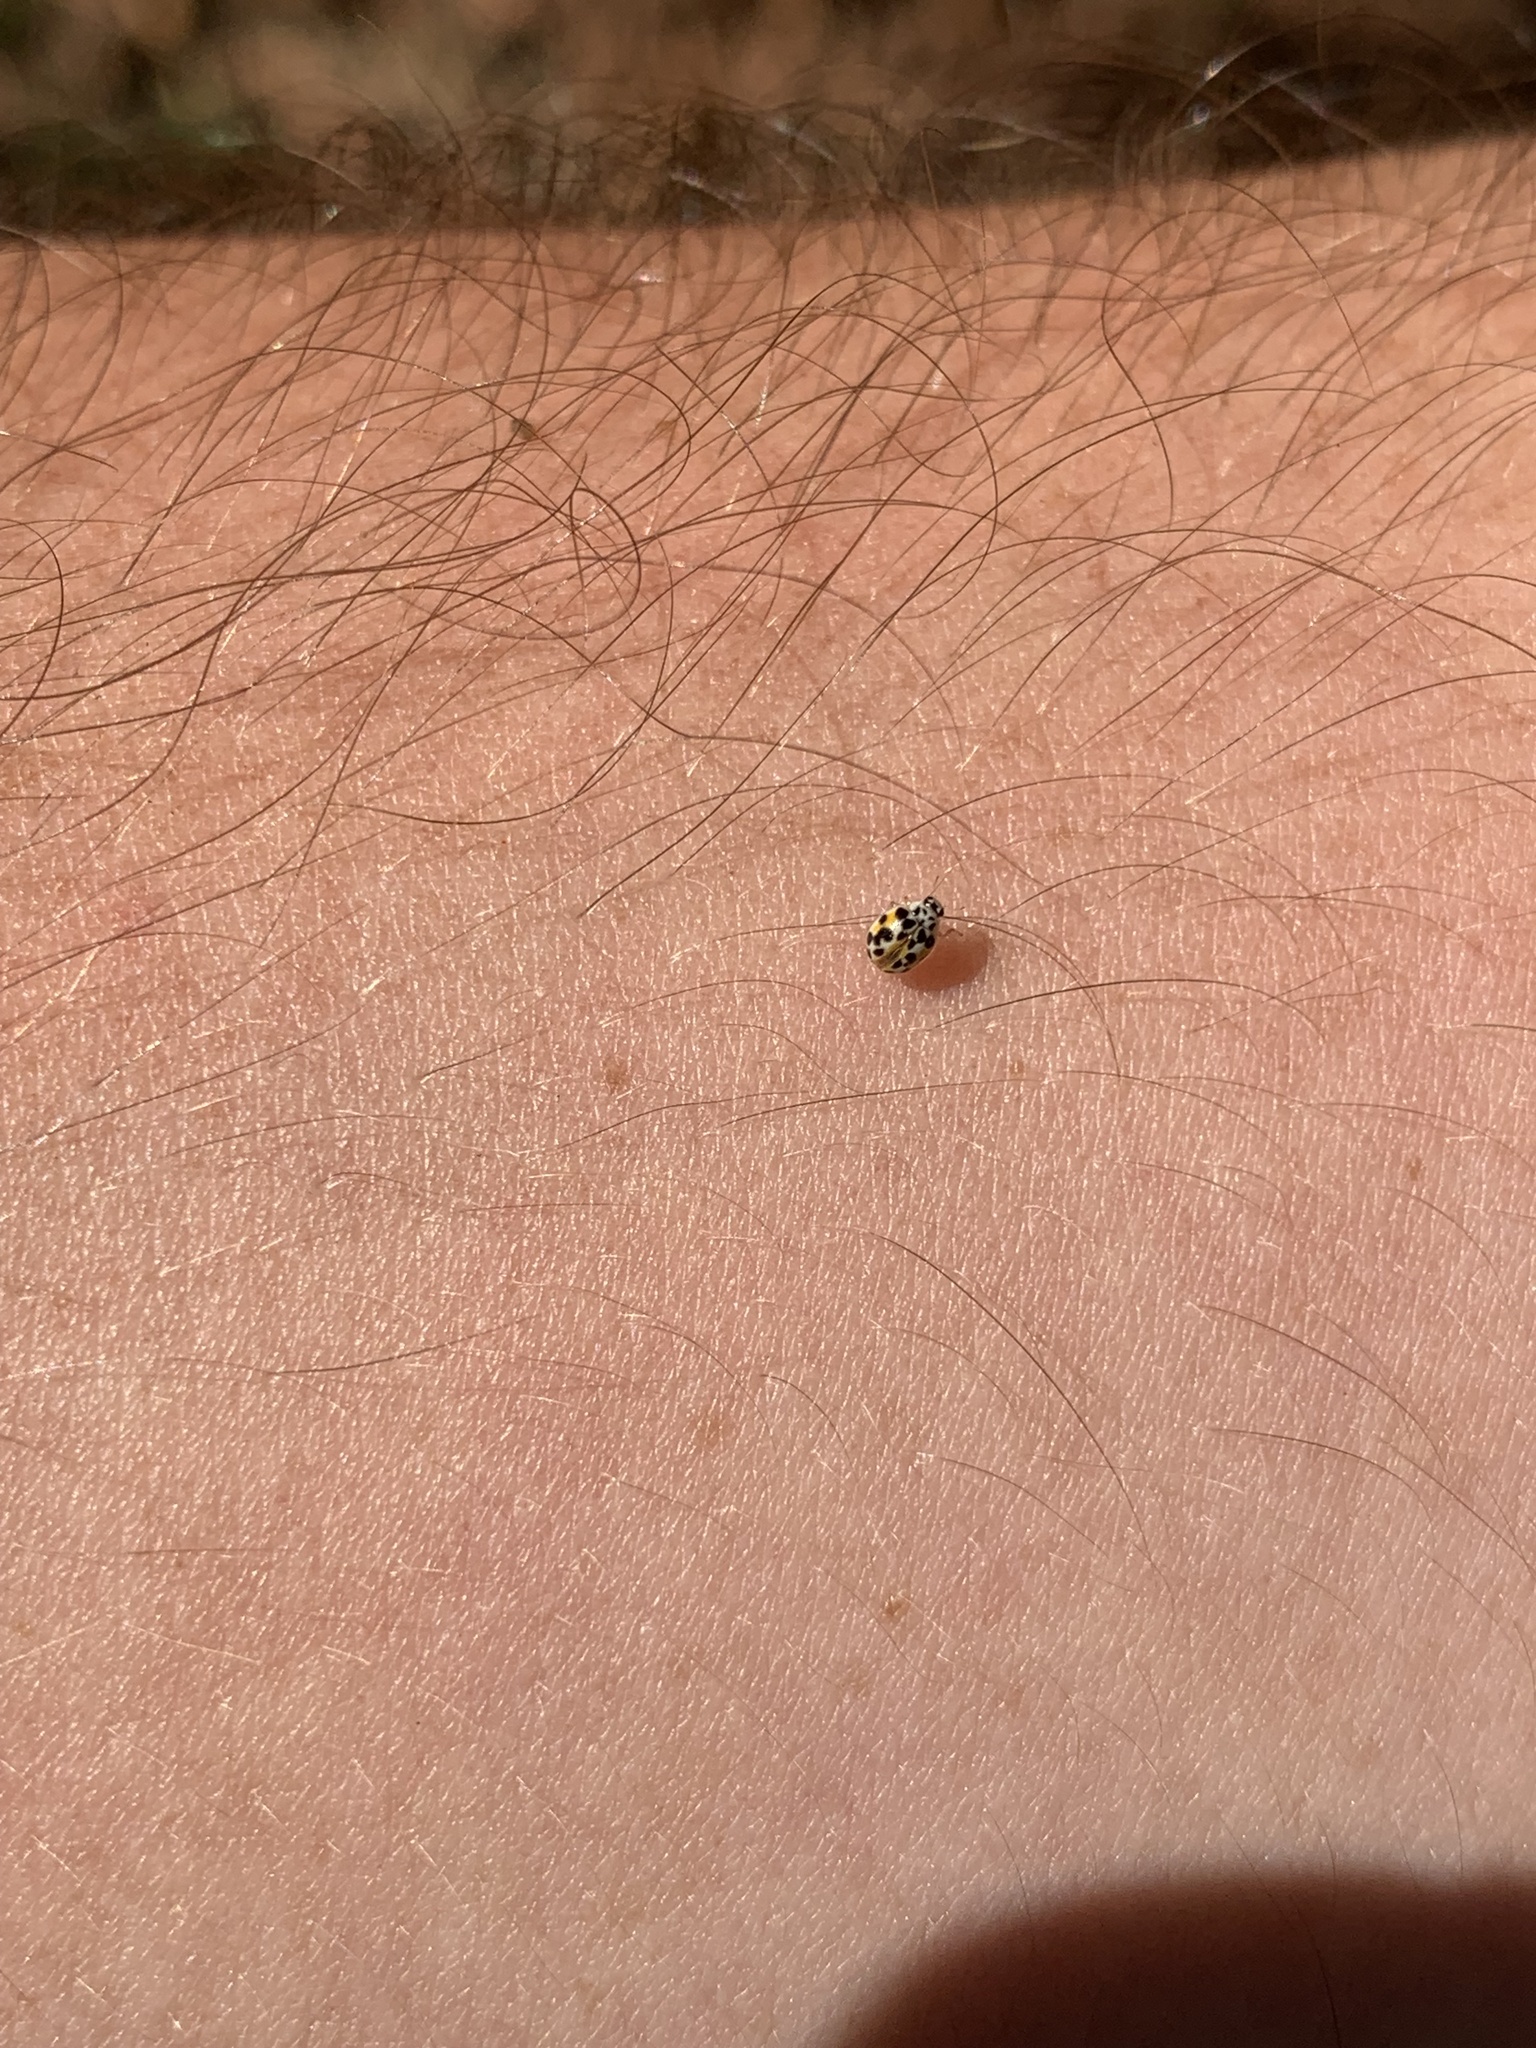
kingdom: Animalia
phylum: Arthropoda
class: Insecta
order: Coleoptera
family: Coccinellidae
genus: Psyllobora
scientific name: Psyllobora vigintimaculata
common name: Ladybird beetle
